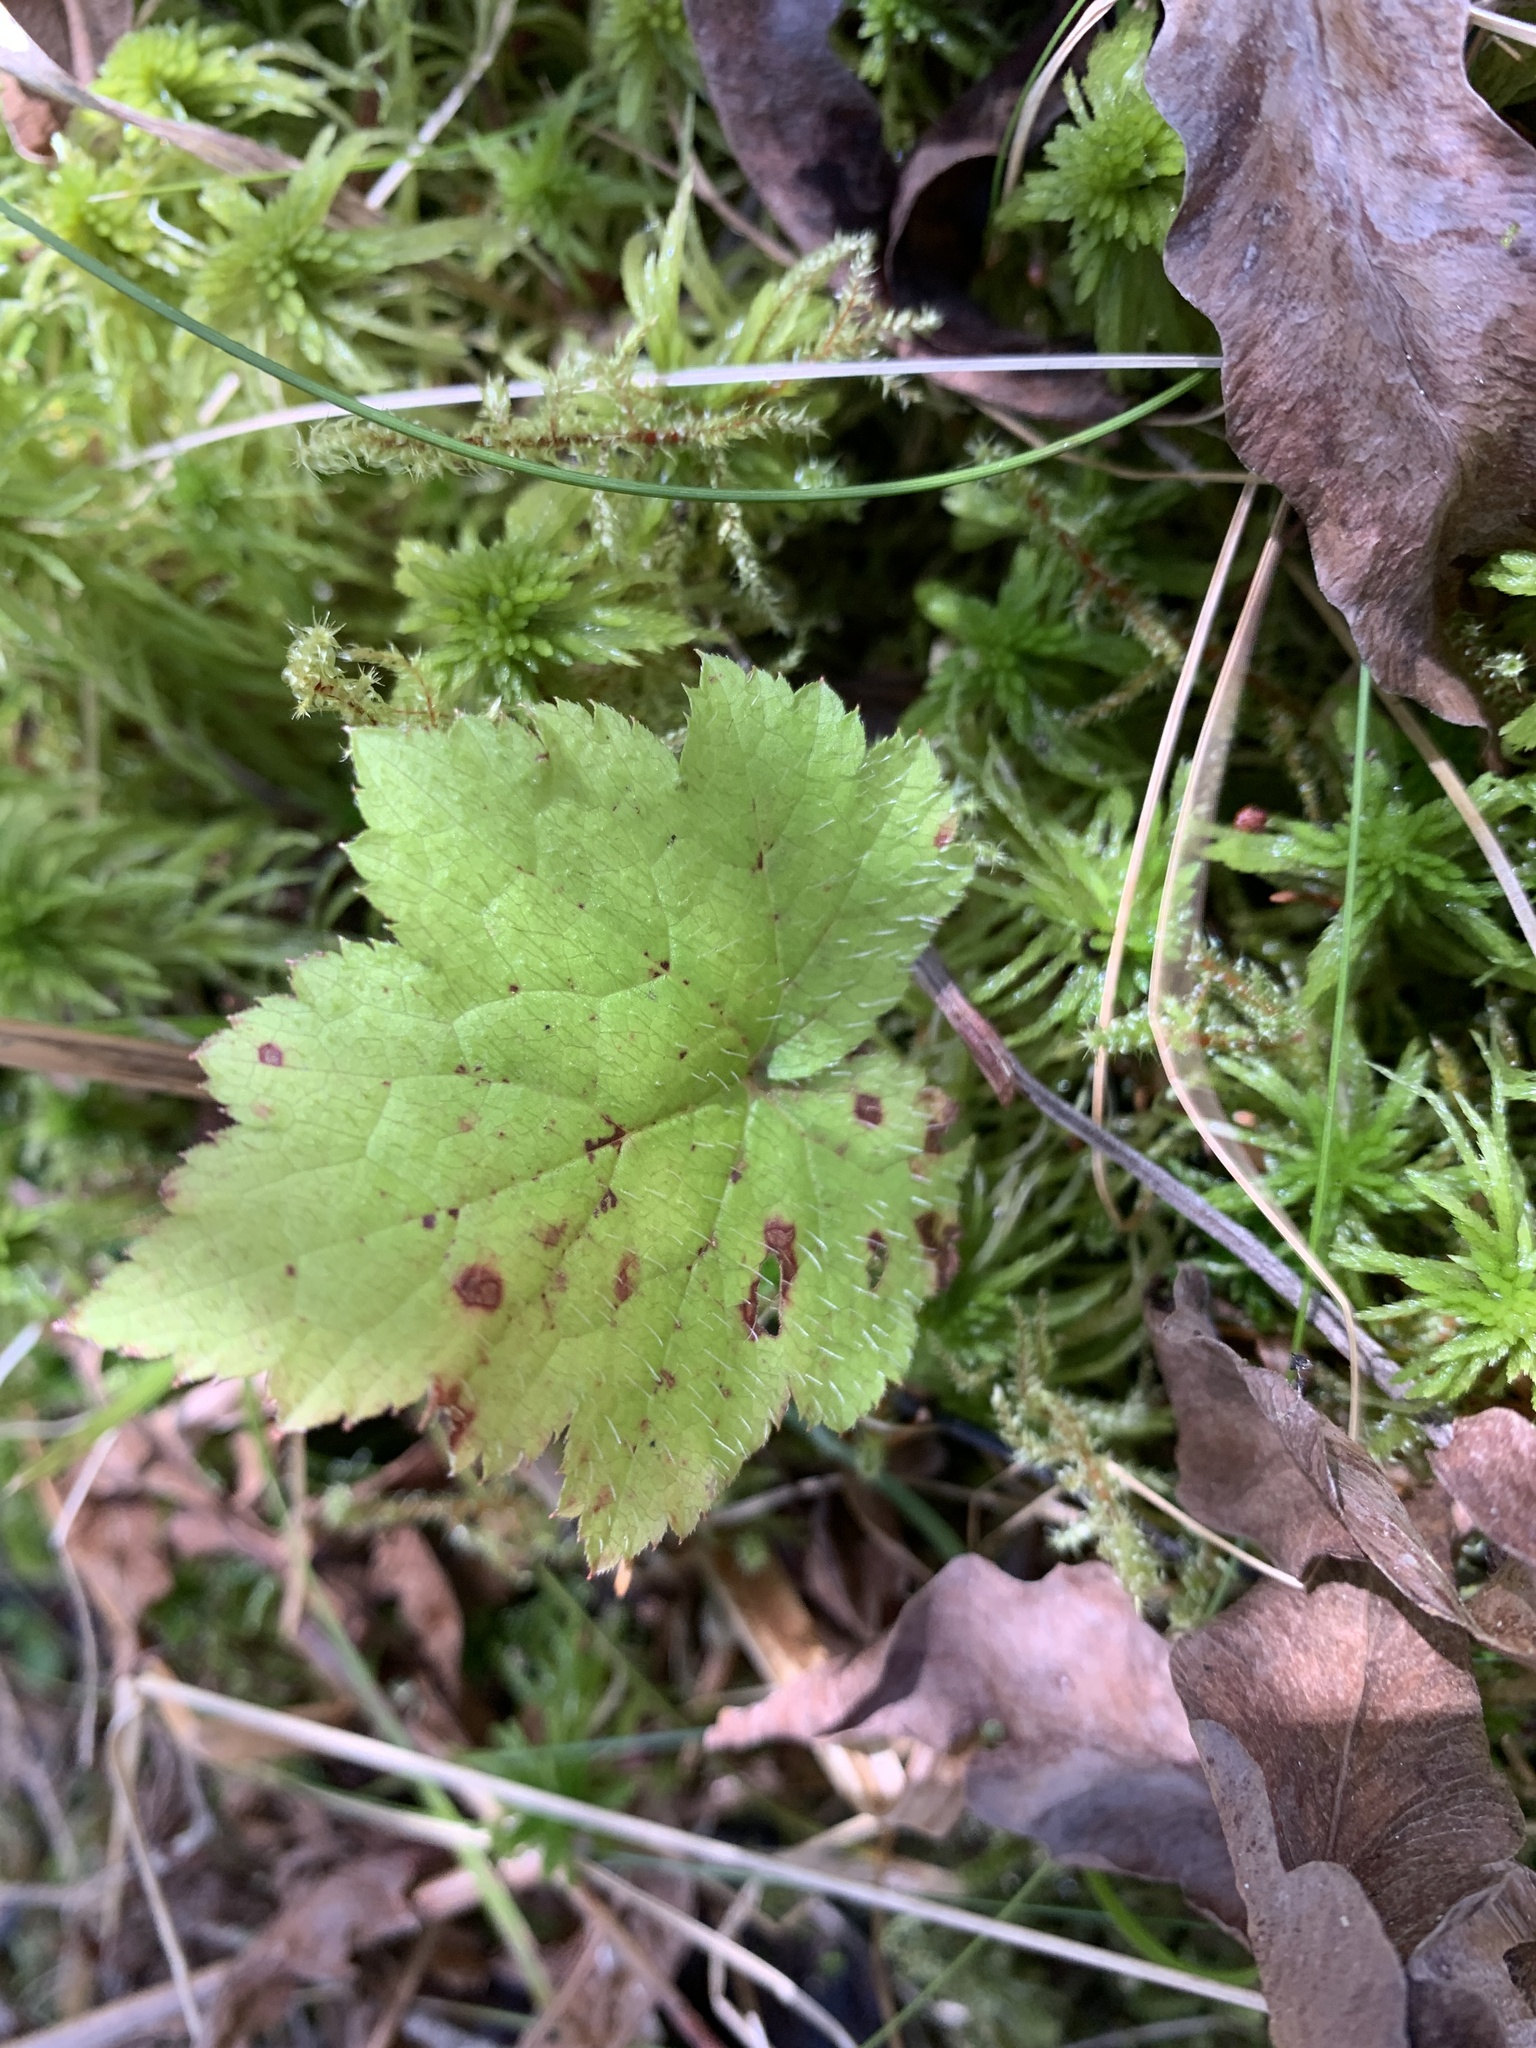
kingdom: Plantae
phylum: Tracheophyta
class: Magnoliopsida
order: Saxifragales
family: Saxifragaceae
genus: Tiarella
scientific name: Tiarella cordifolia
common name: Foamflower
